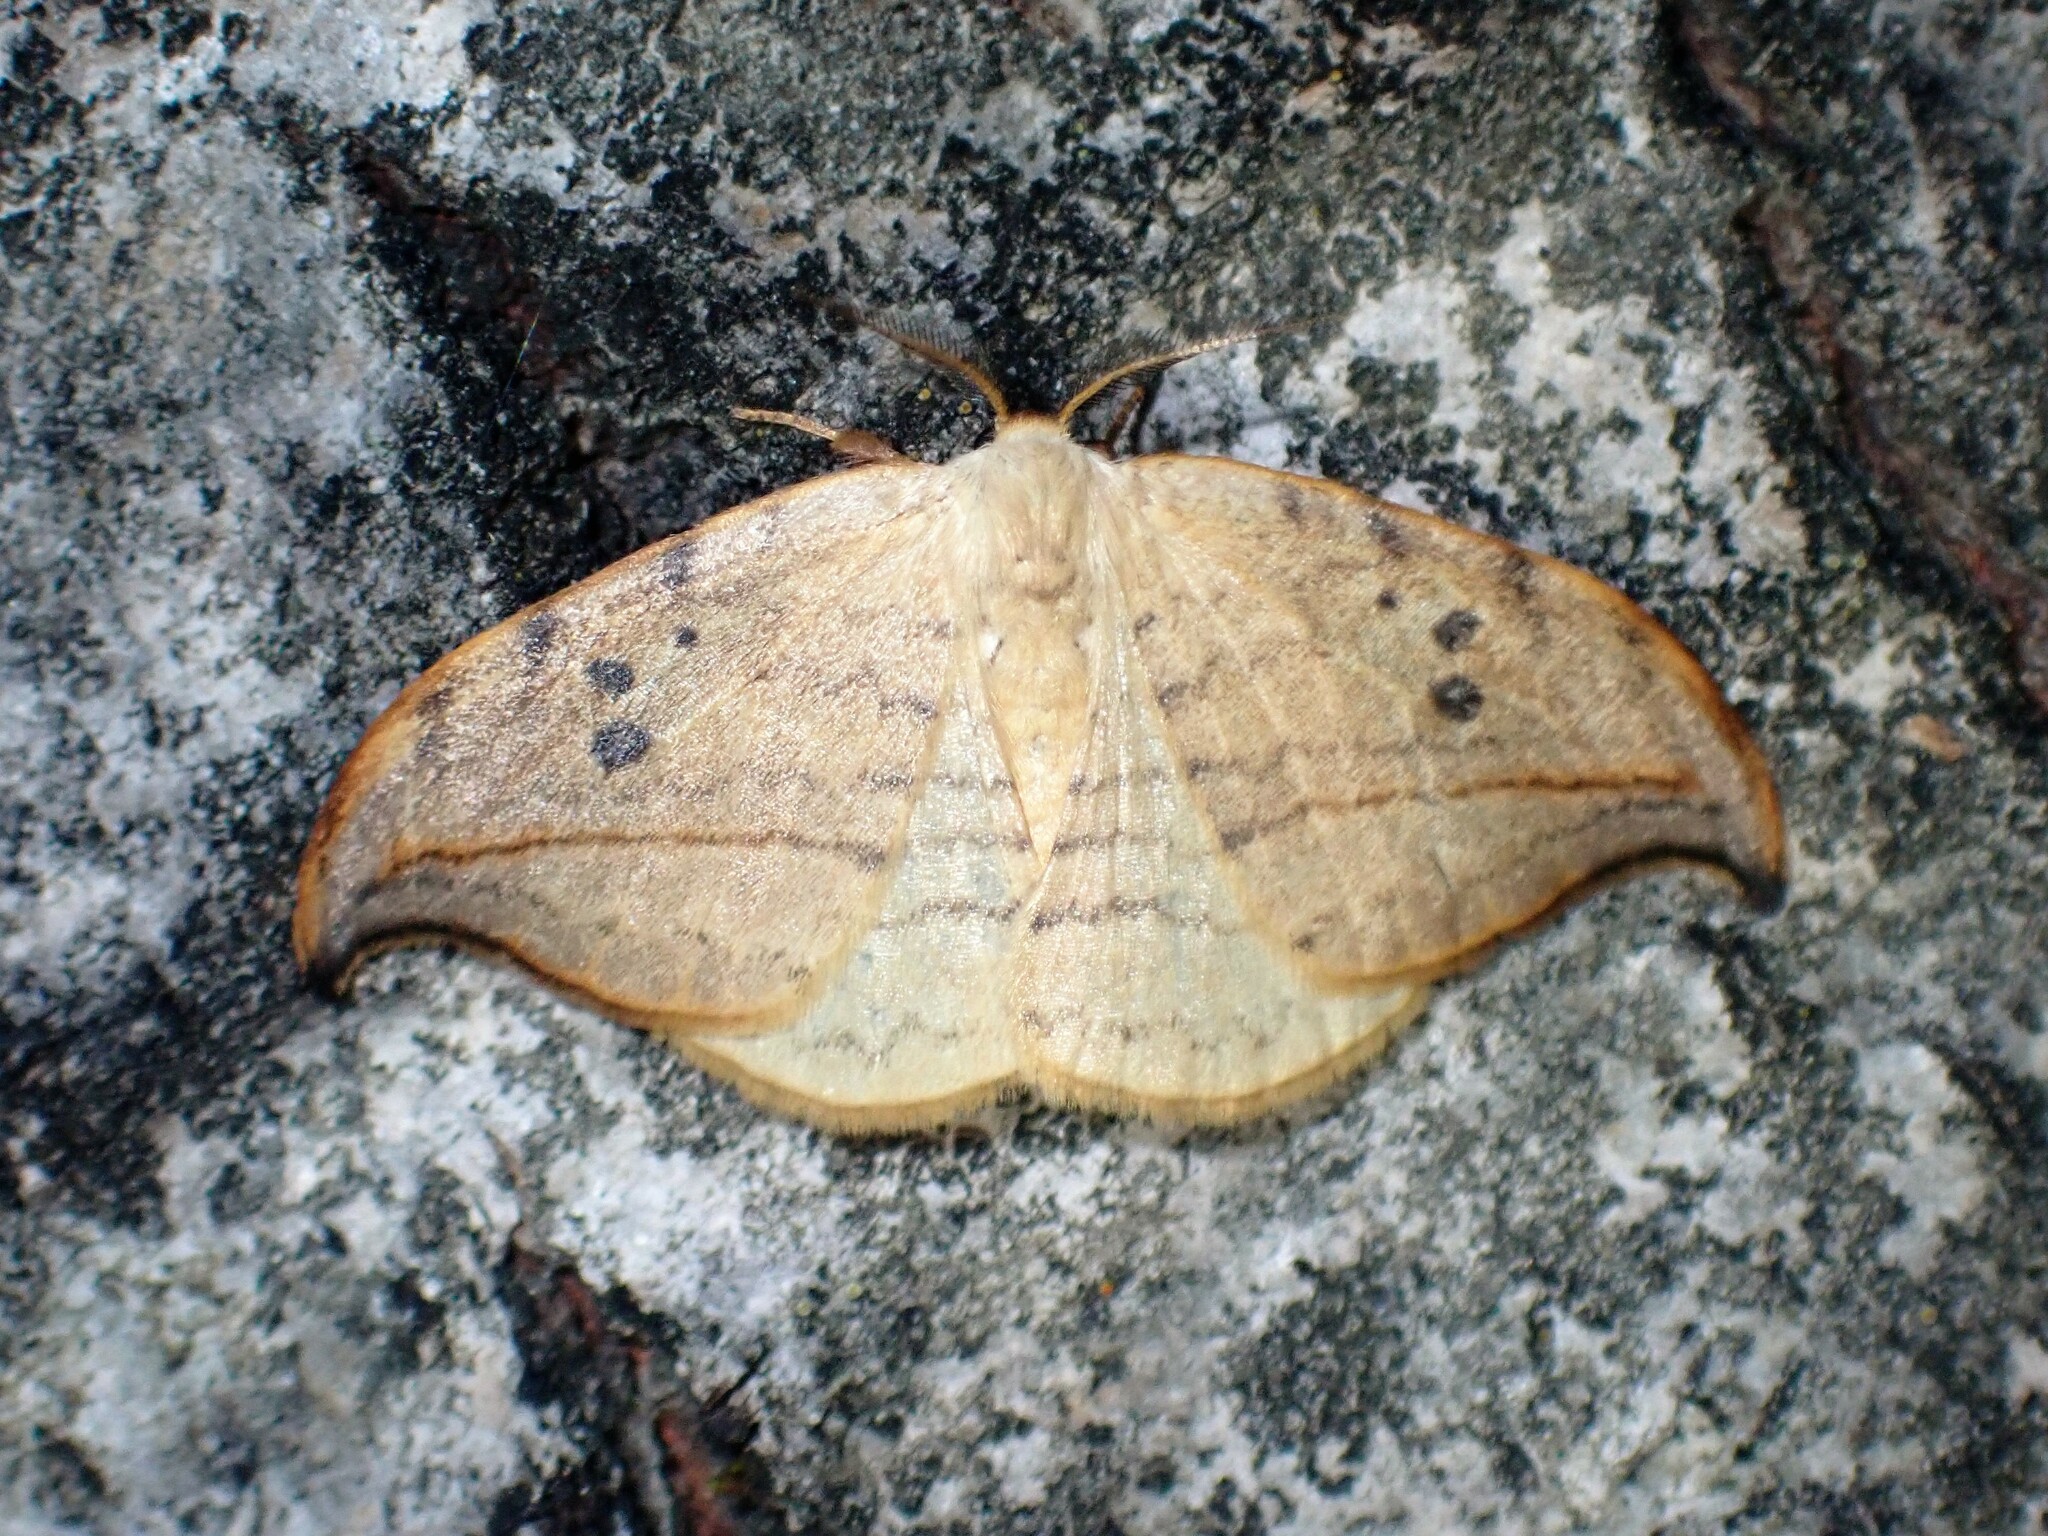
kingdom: Animalia
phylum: Arthropoda
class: Insecta
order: Lepidoptera
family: Drepanidae
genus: Drepana
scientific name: Drepana arcuata
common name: Arched hooktip moth
